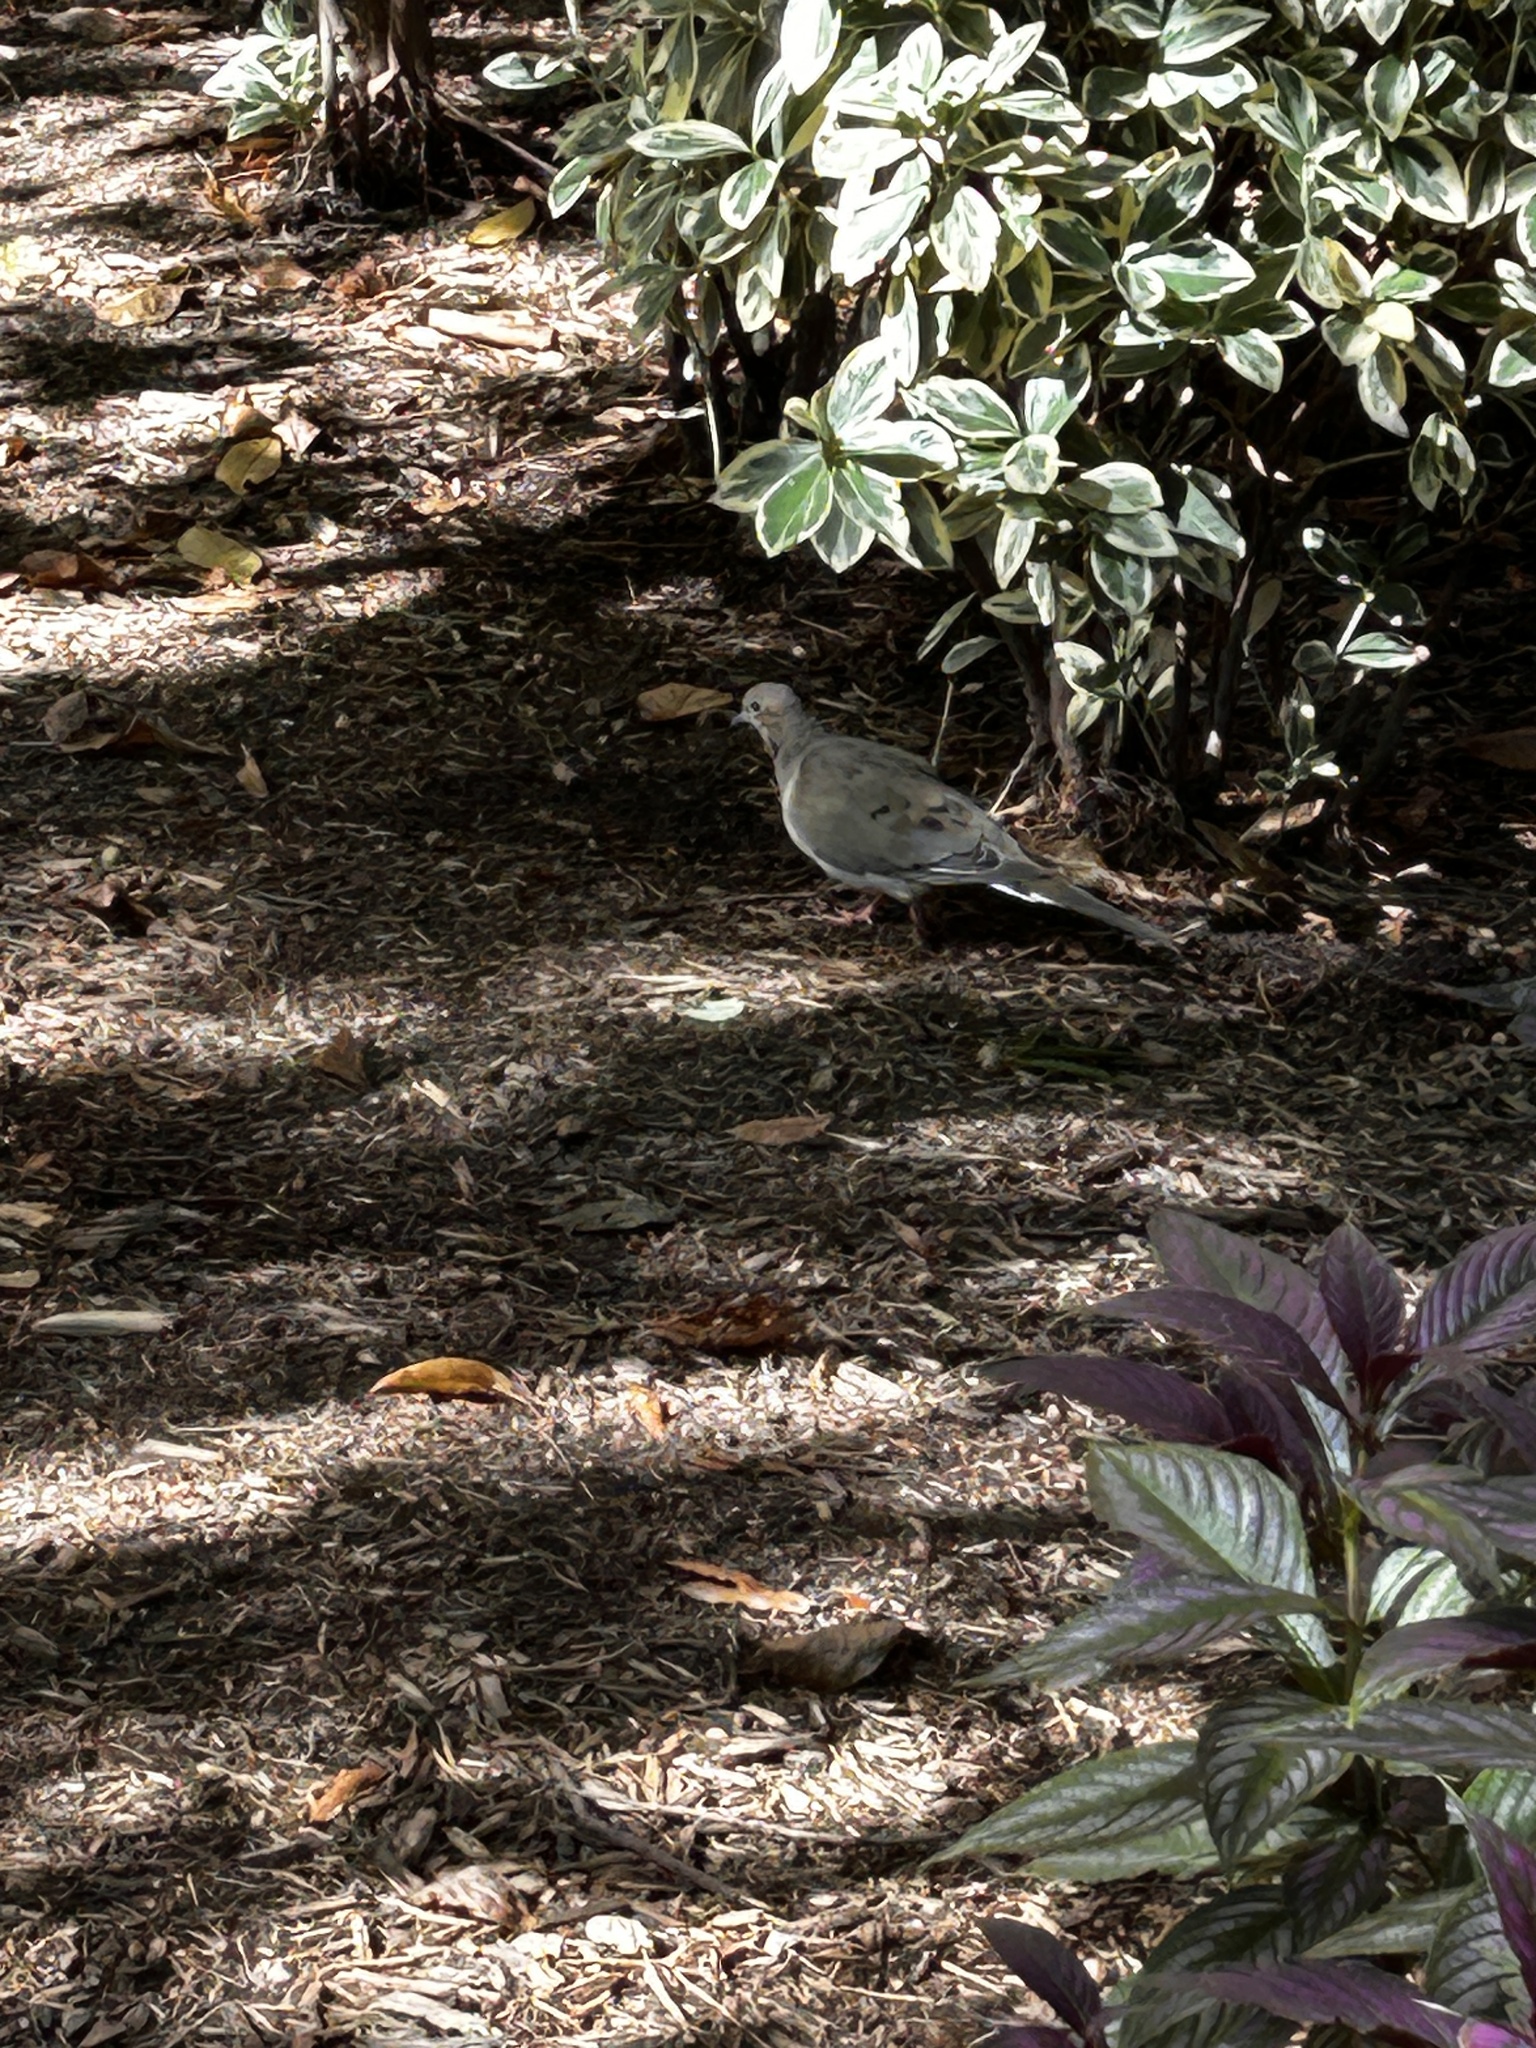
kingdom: Animalia
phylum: Chordata
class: Aves
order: Columbiformes
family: Columbidae
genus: Zenaida
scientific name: Zenaida macroura
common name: Mourning dove
